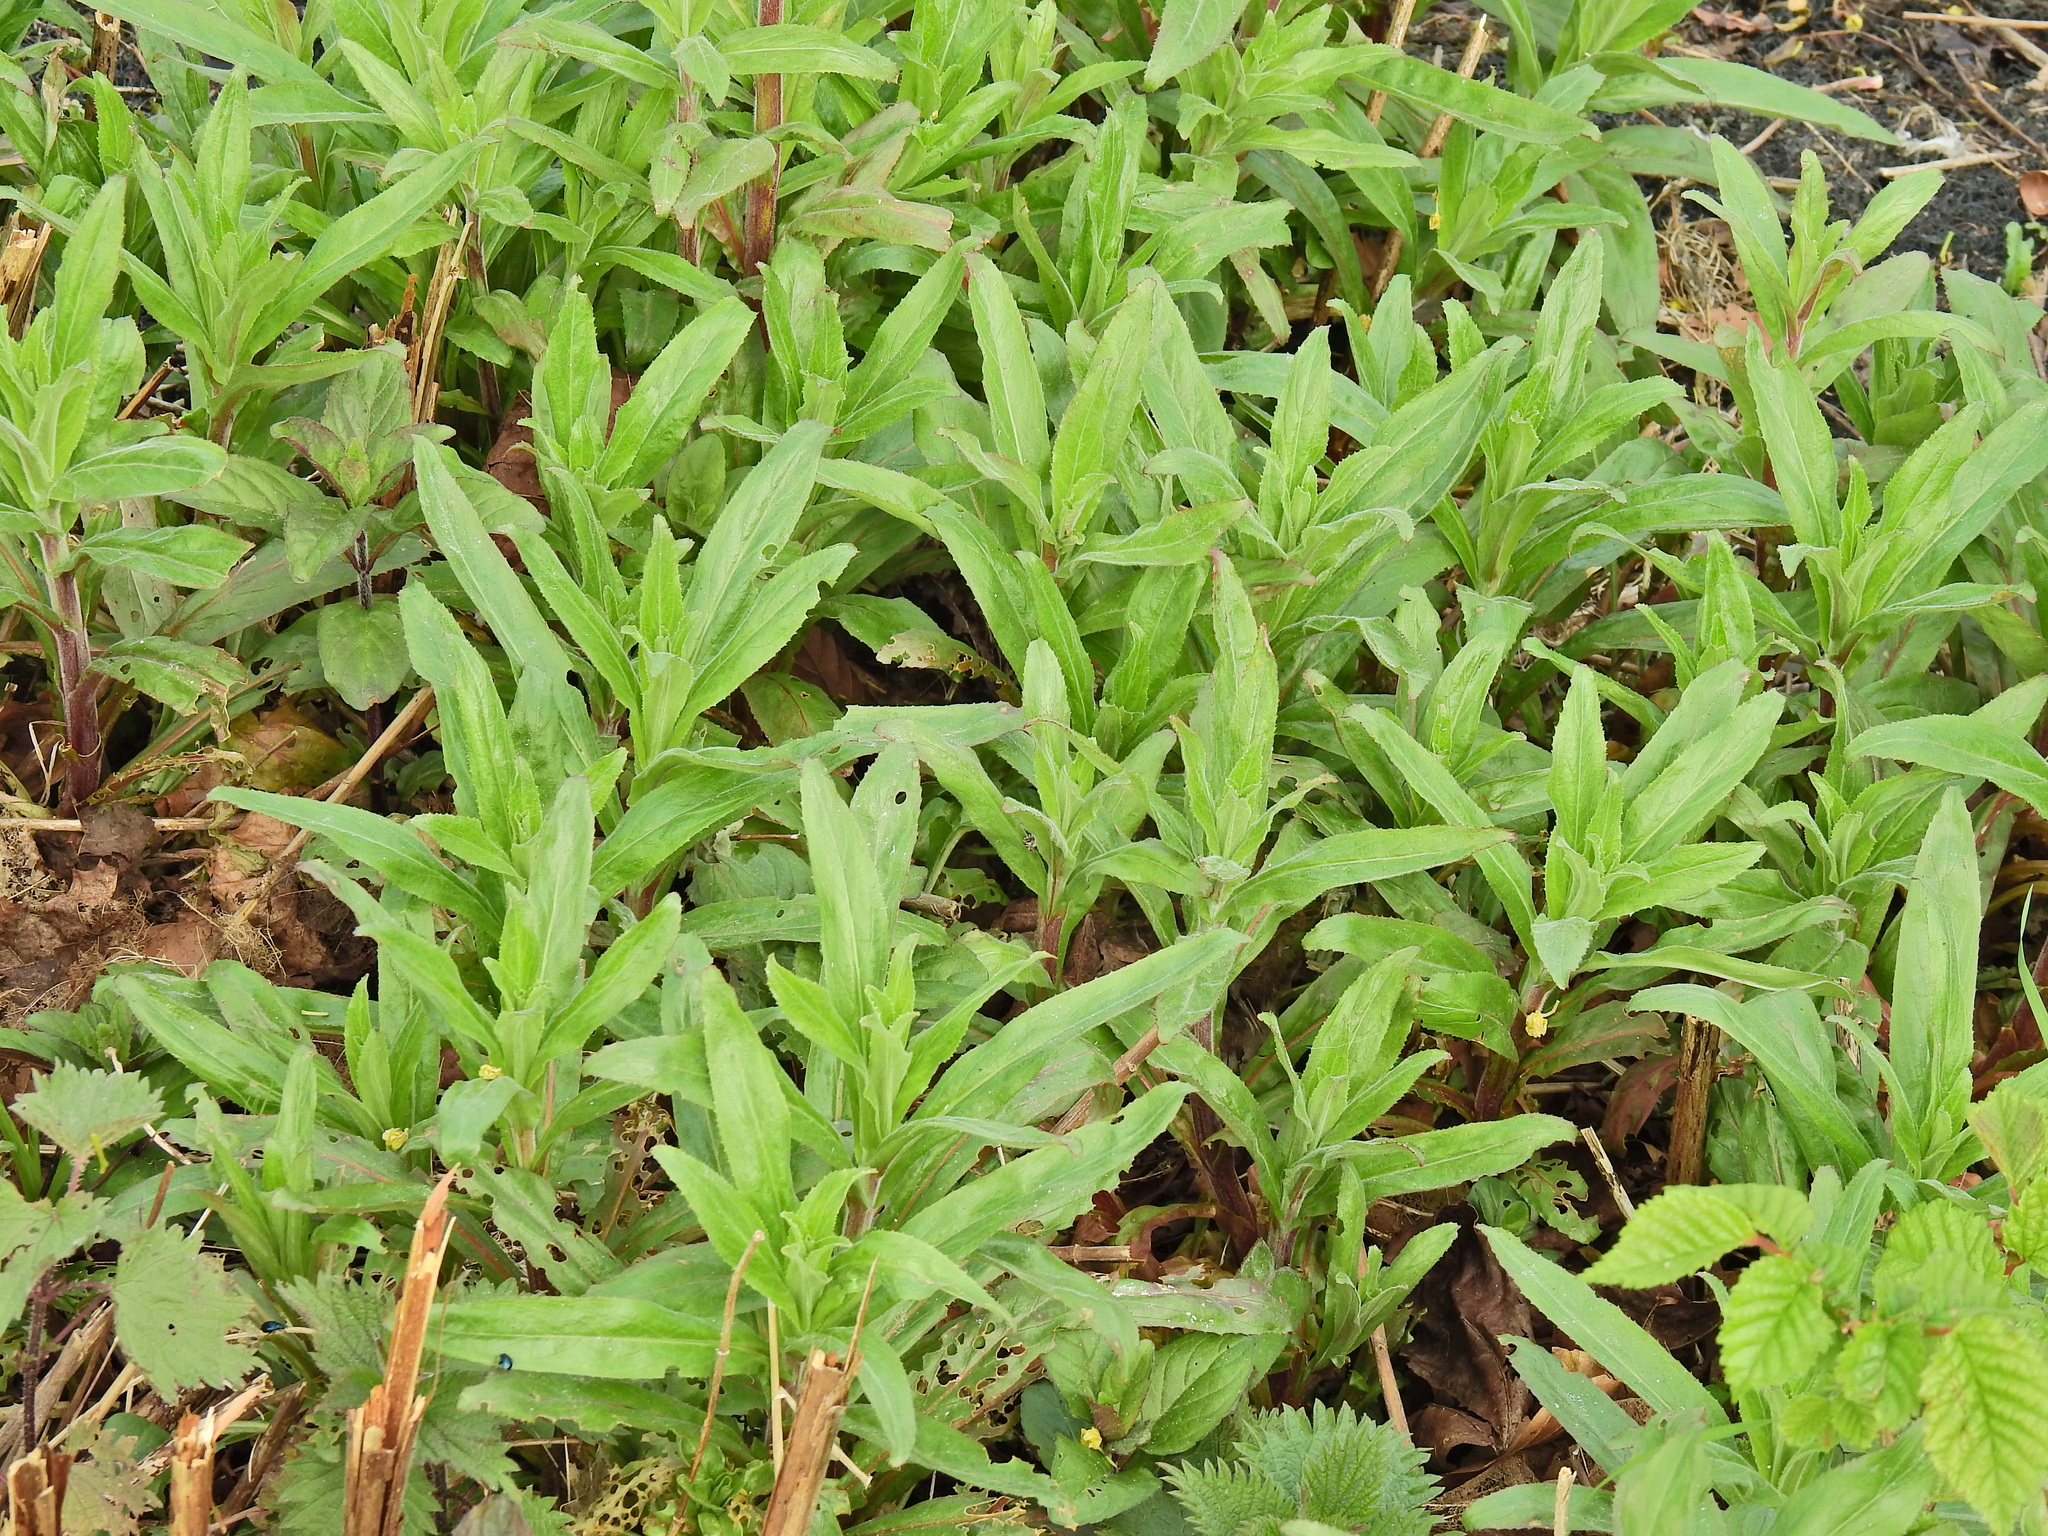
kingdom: Plantae
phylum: Tracheophyta
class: Magnoliopsida
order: Myrtales
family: Onagraceae
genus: Epilobium
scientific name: Epilobium hirsutum
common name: Great willowherb
